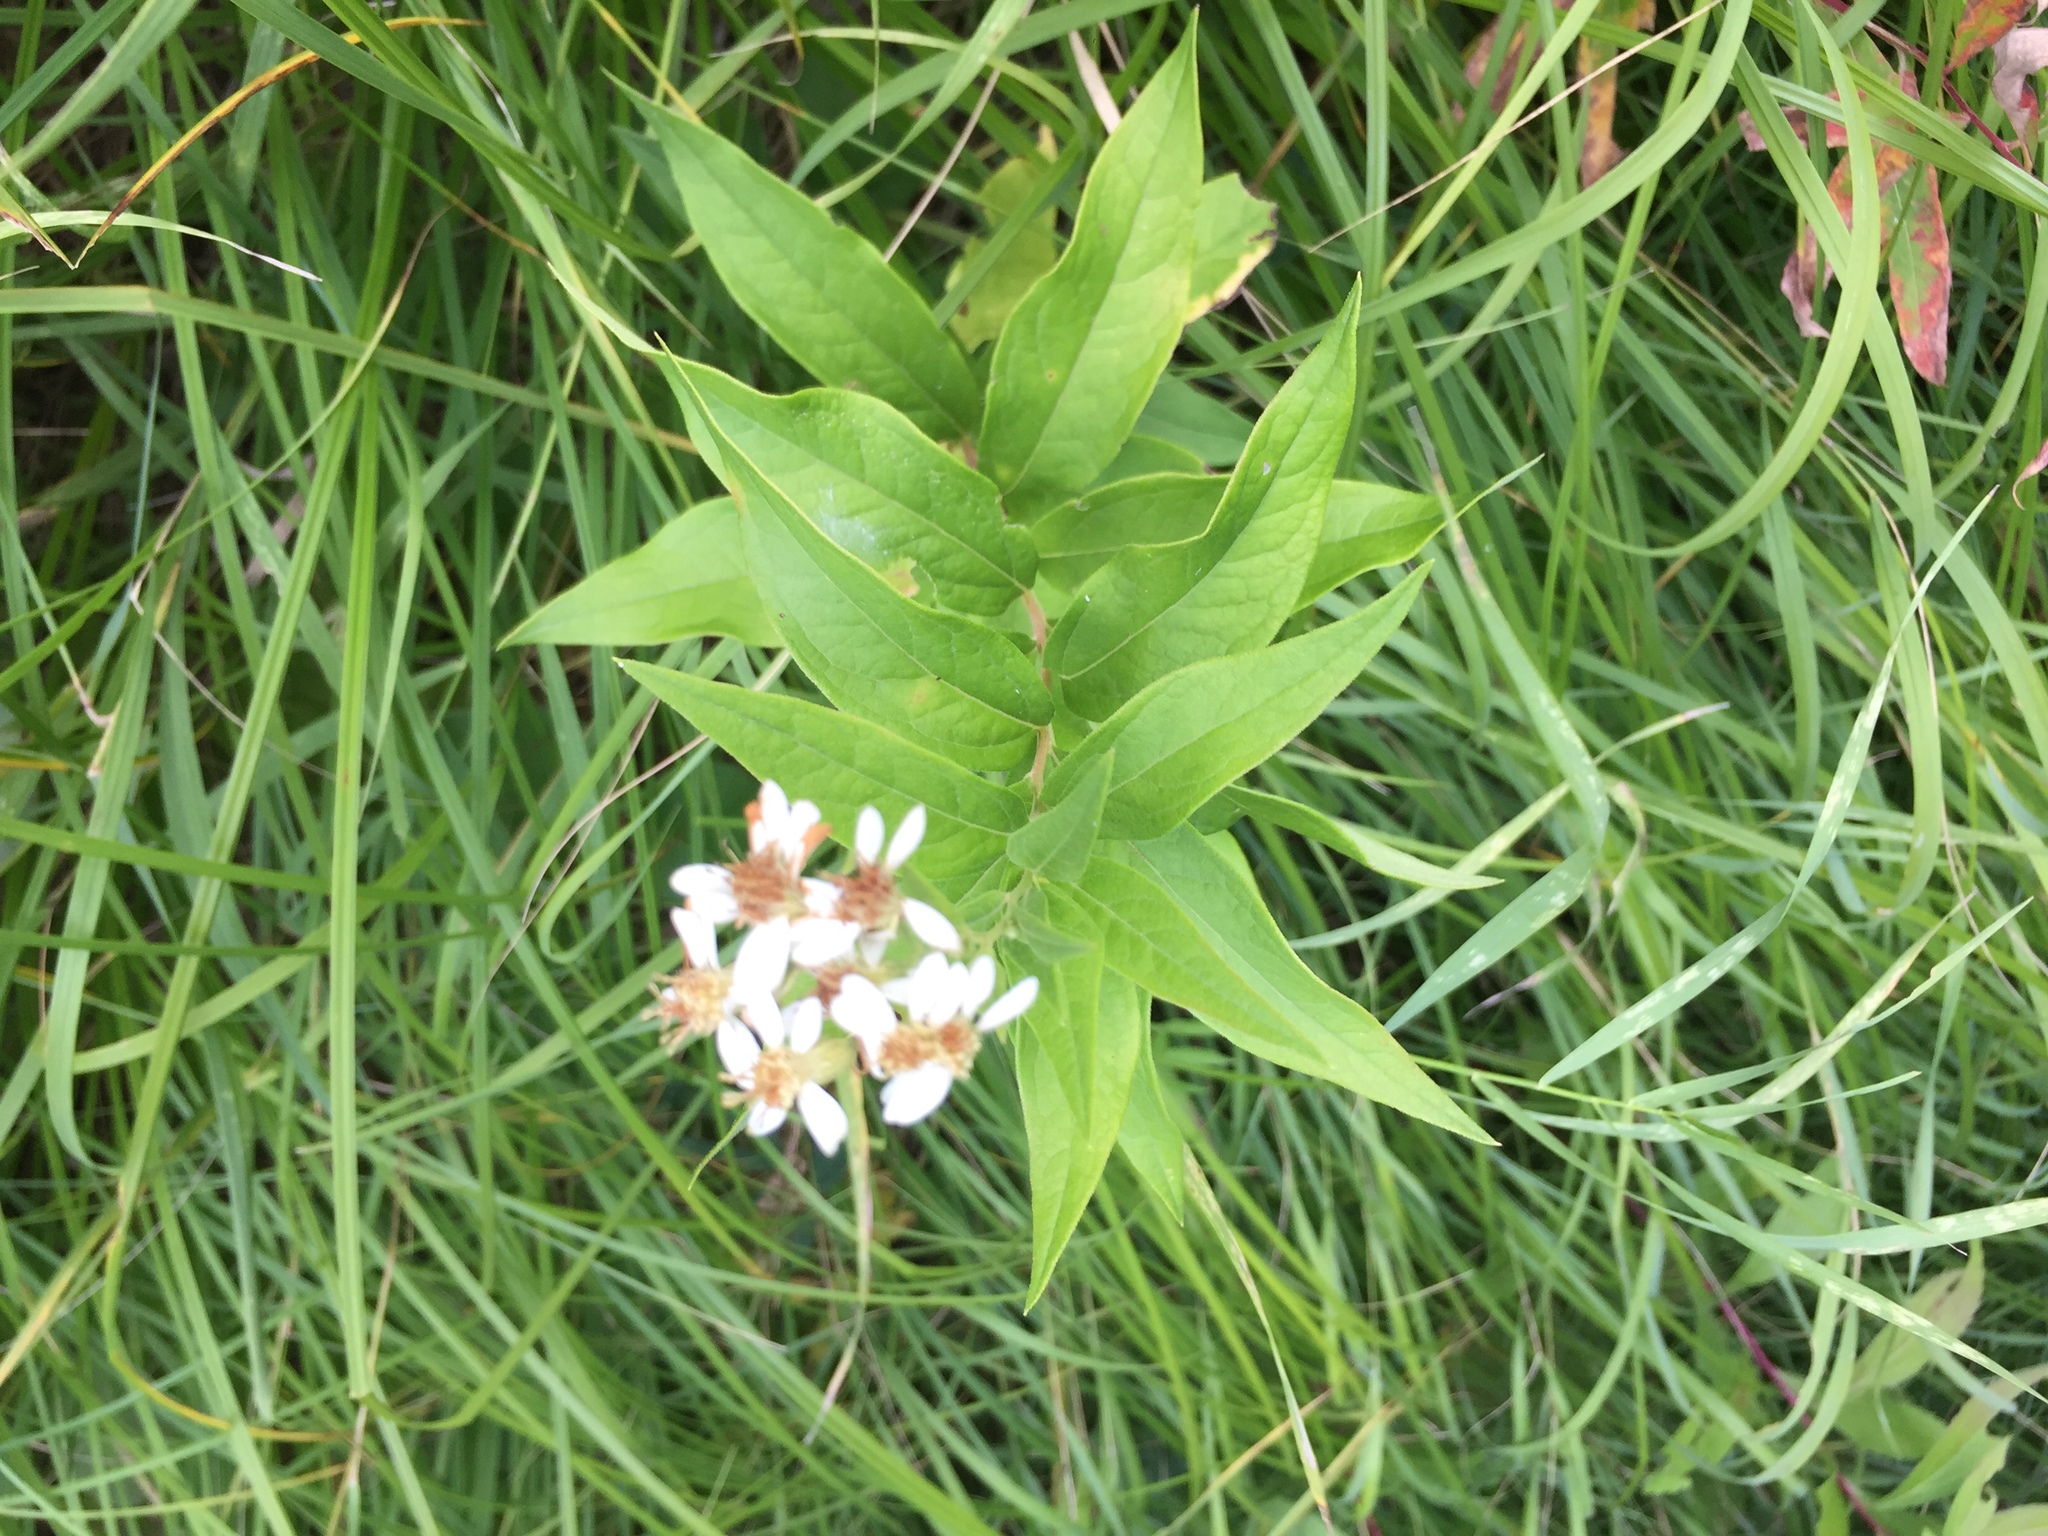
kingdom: Plantae
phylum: Tracheophyta
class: Magnoliopsida
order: Asterales
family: Asteraceae
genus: Doellingeria
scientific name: Doellingeria umbellata
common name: Flat-top white aster
